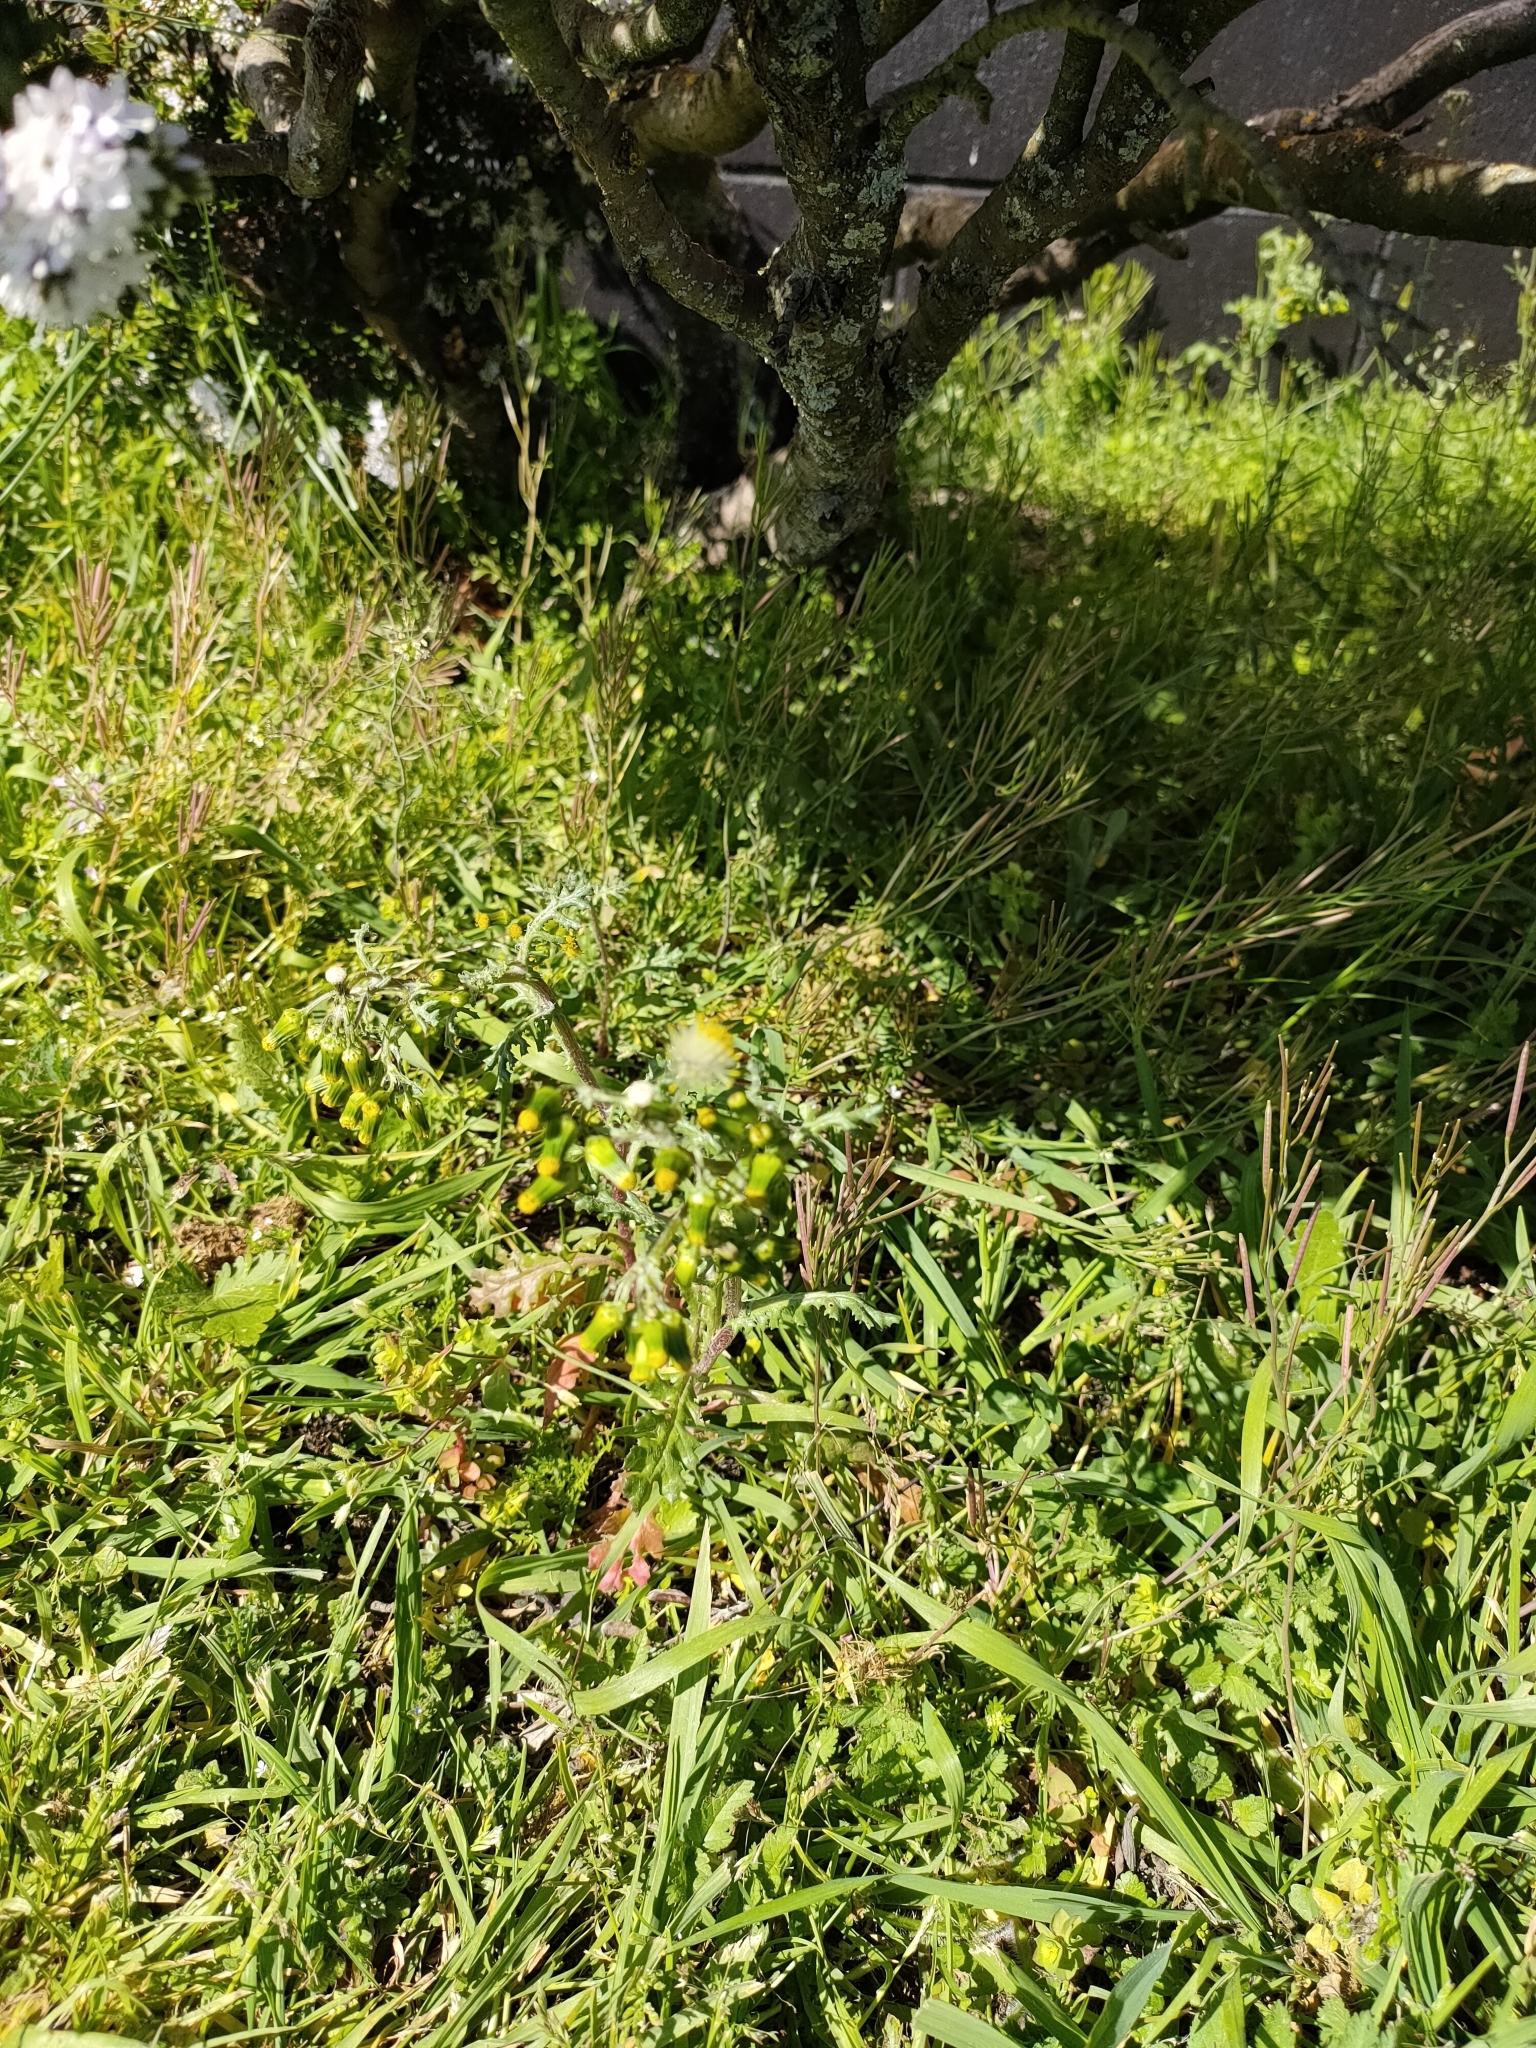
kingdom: Plantae
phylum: Tracheophyta
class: Magnoliopsida
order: Asterales
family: Asteraceae
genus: Senecio
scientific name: Senecio vulgaris
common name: Old-man-in-the-spring
